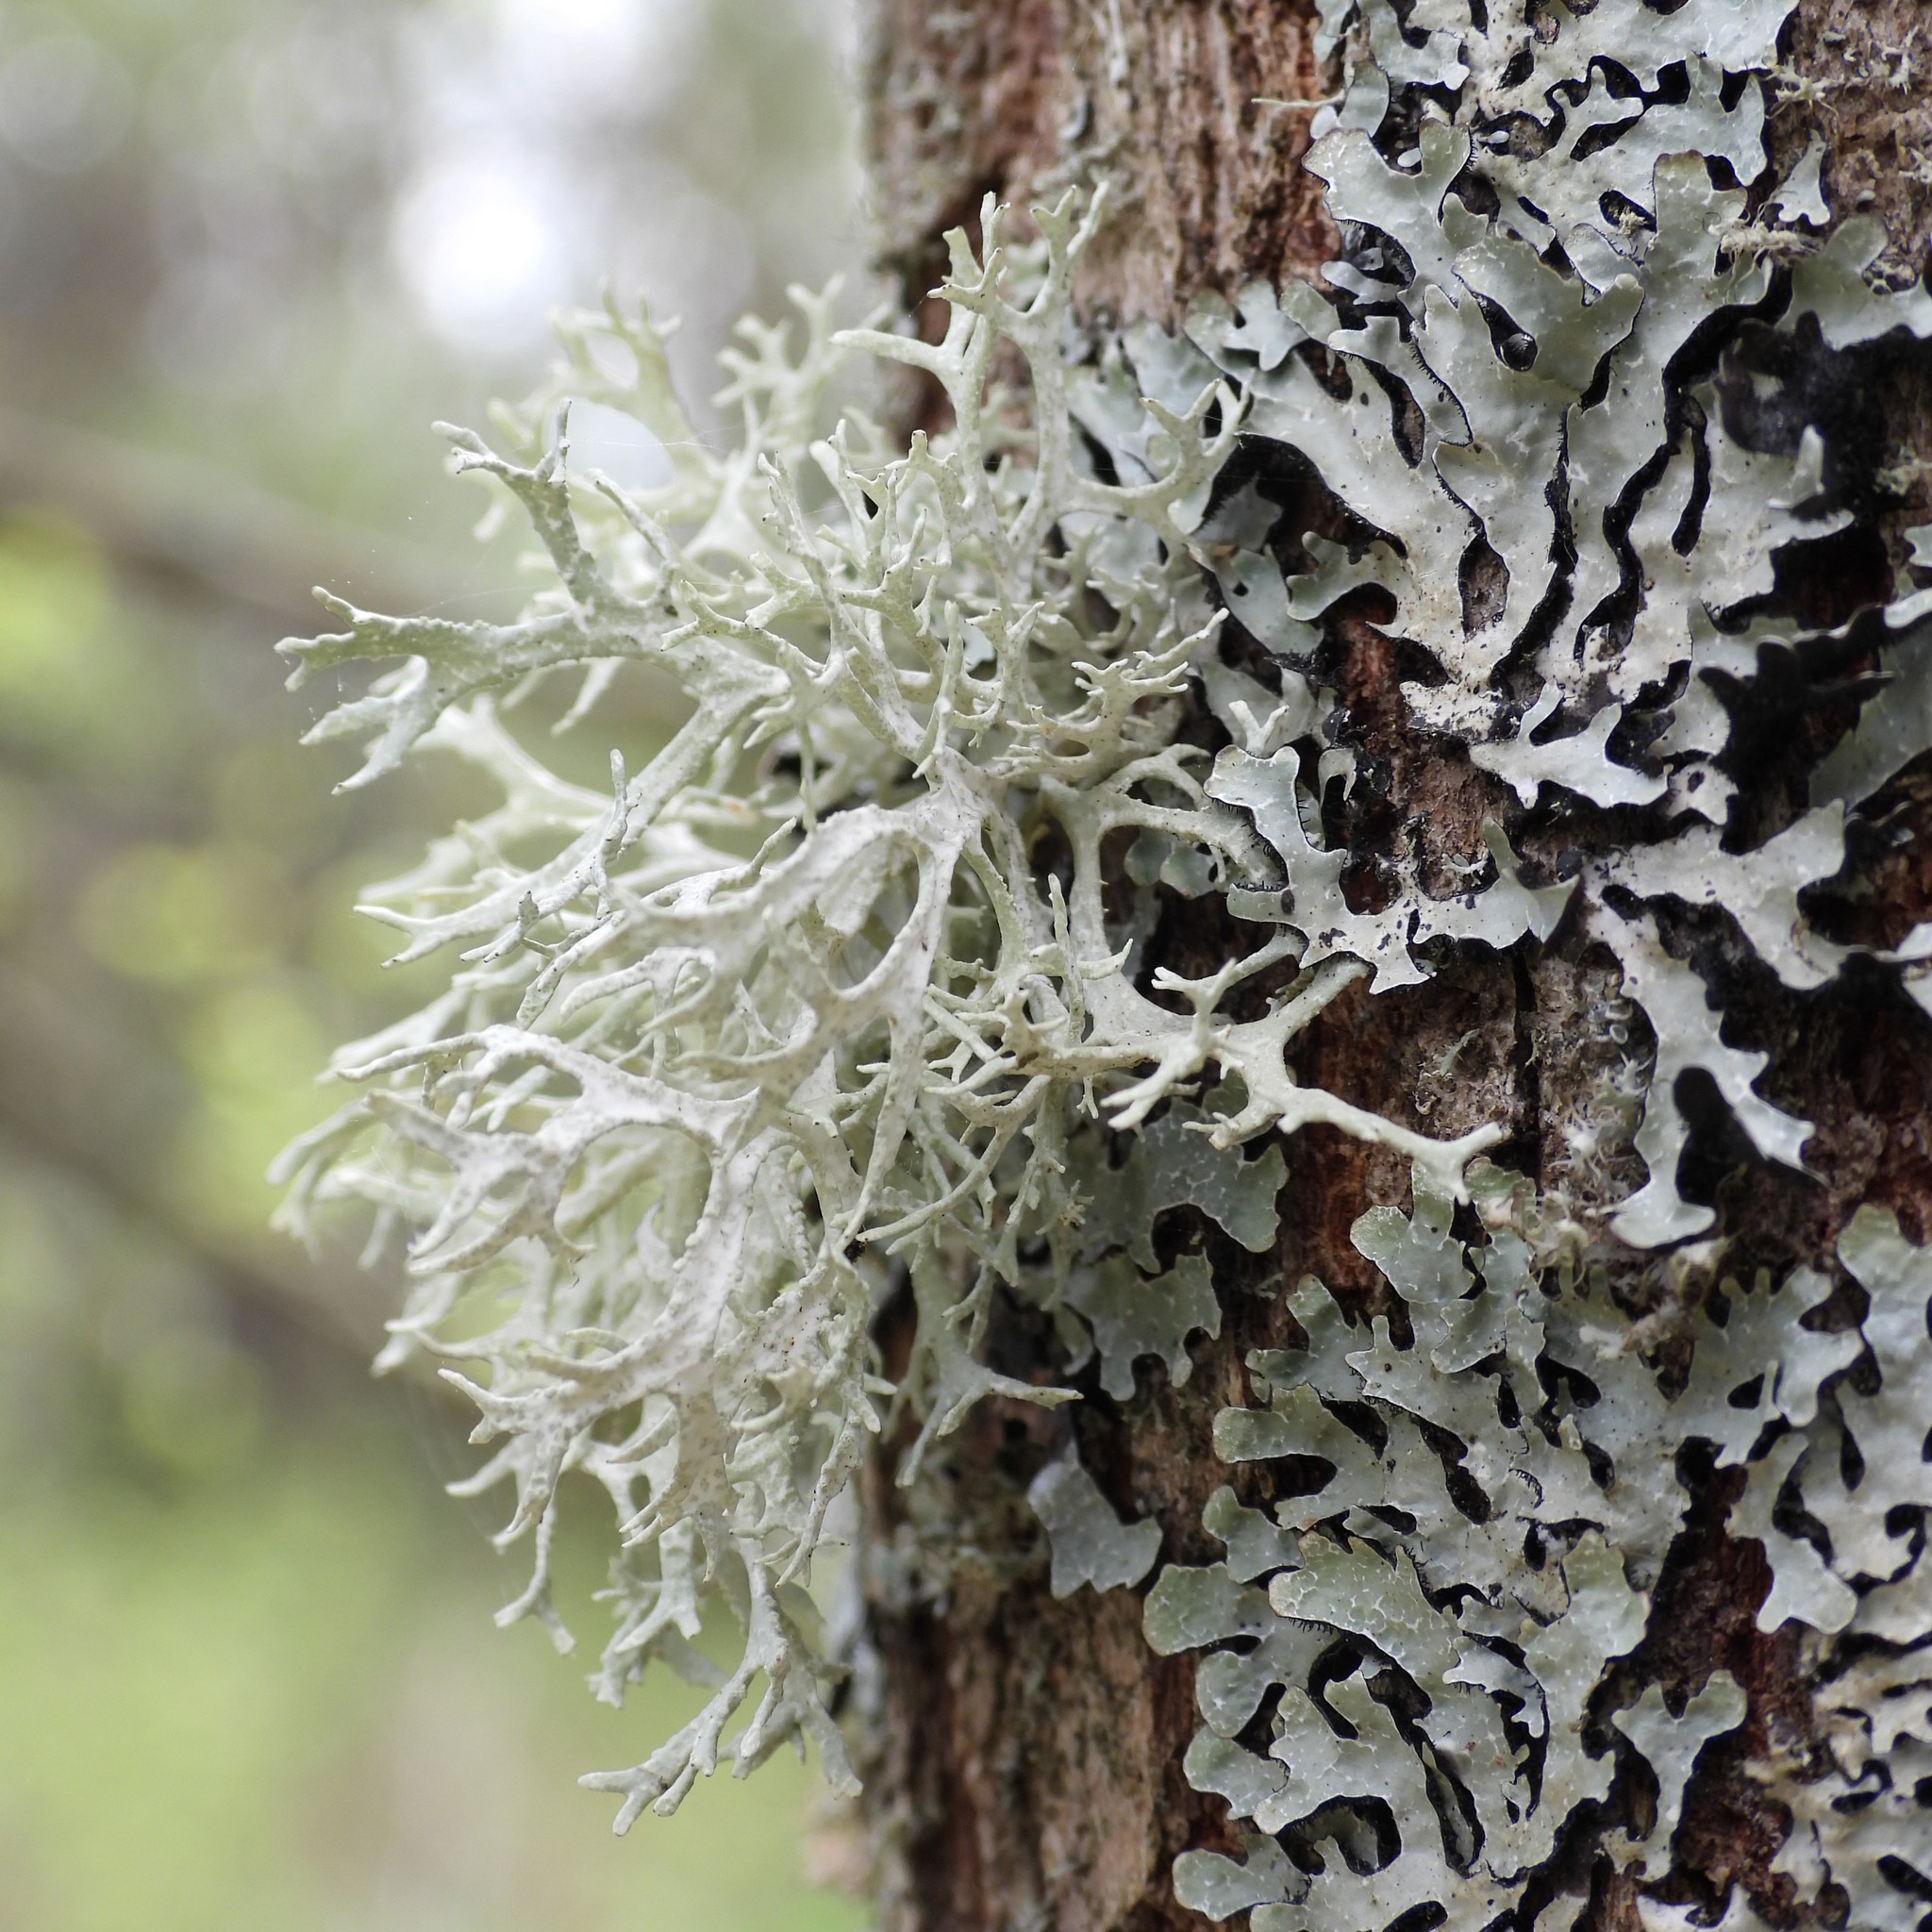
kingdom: Fungi
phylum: Ascomycota
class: Lecanoromycetes
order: Lecanorales
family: Parmeliaceae
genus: Evernia
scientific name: Evernia prunastri
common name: Oak moss
